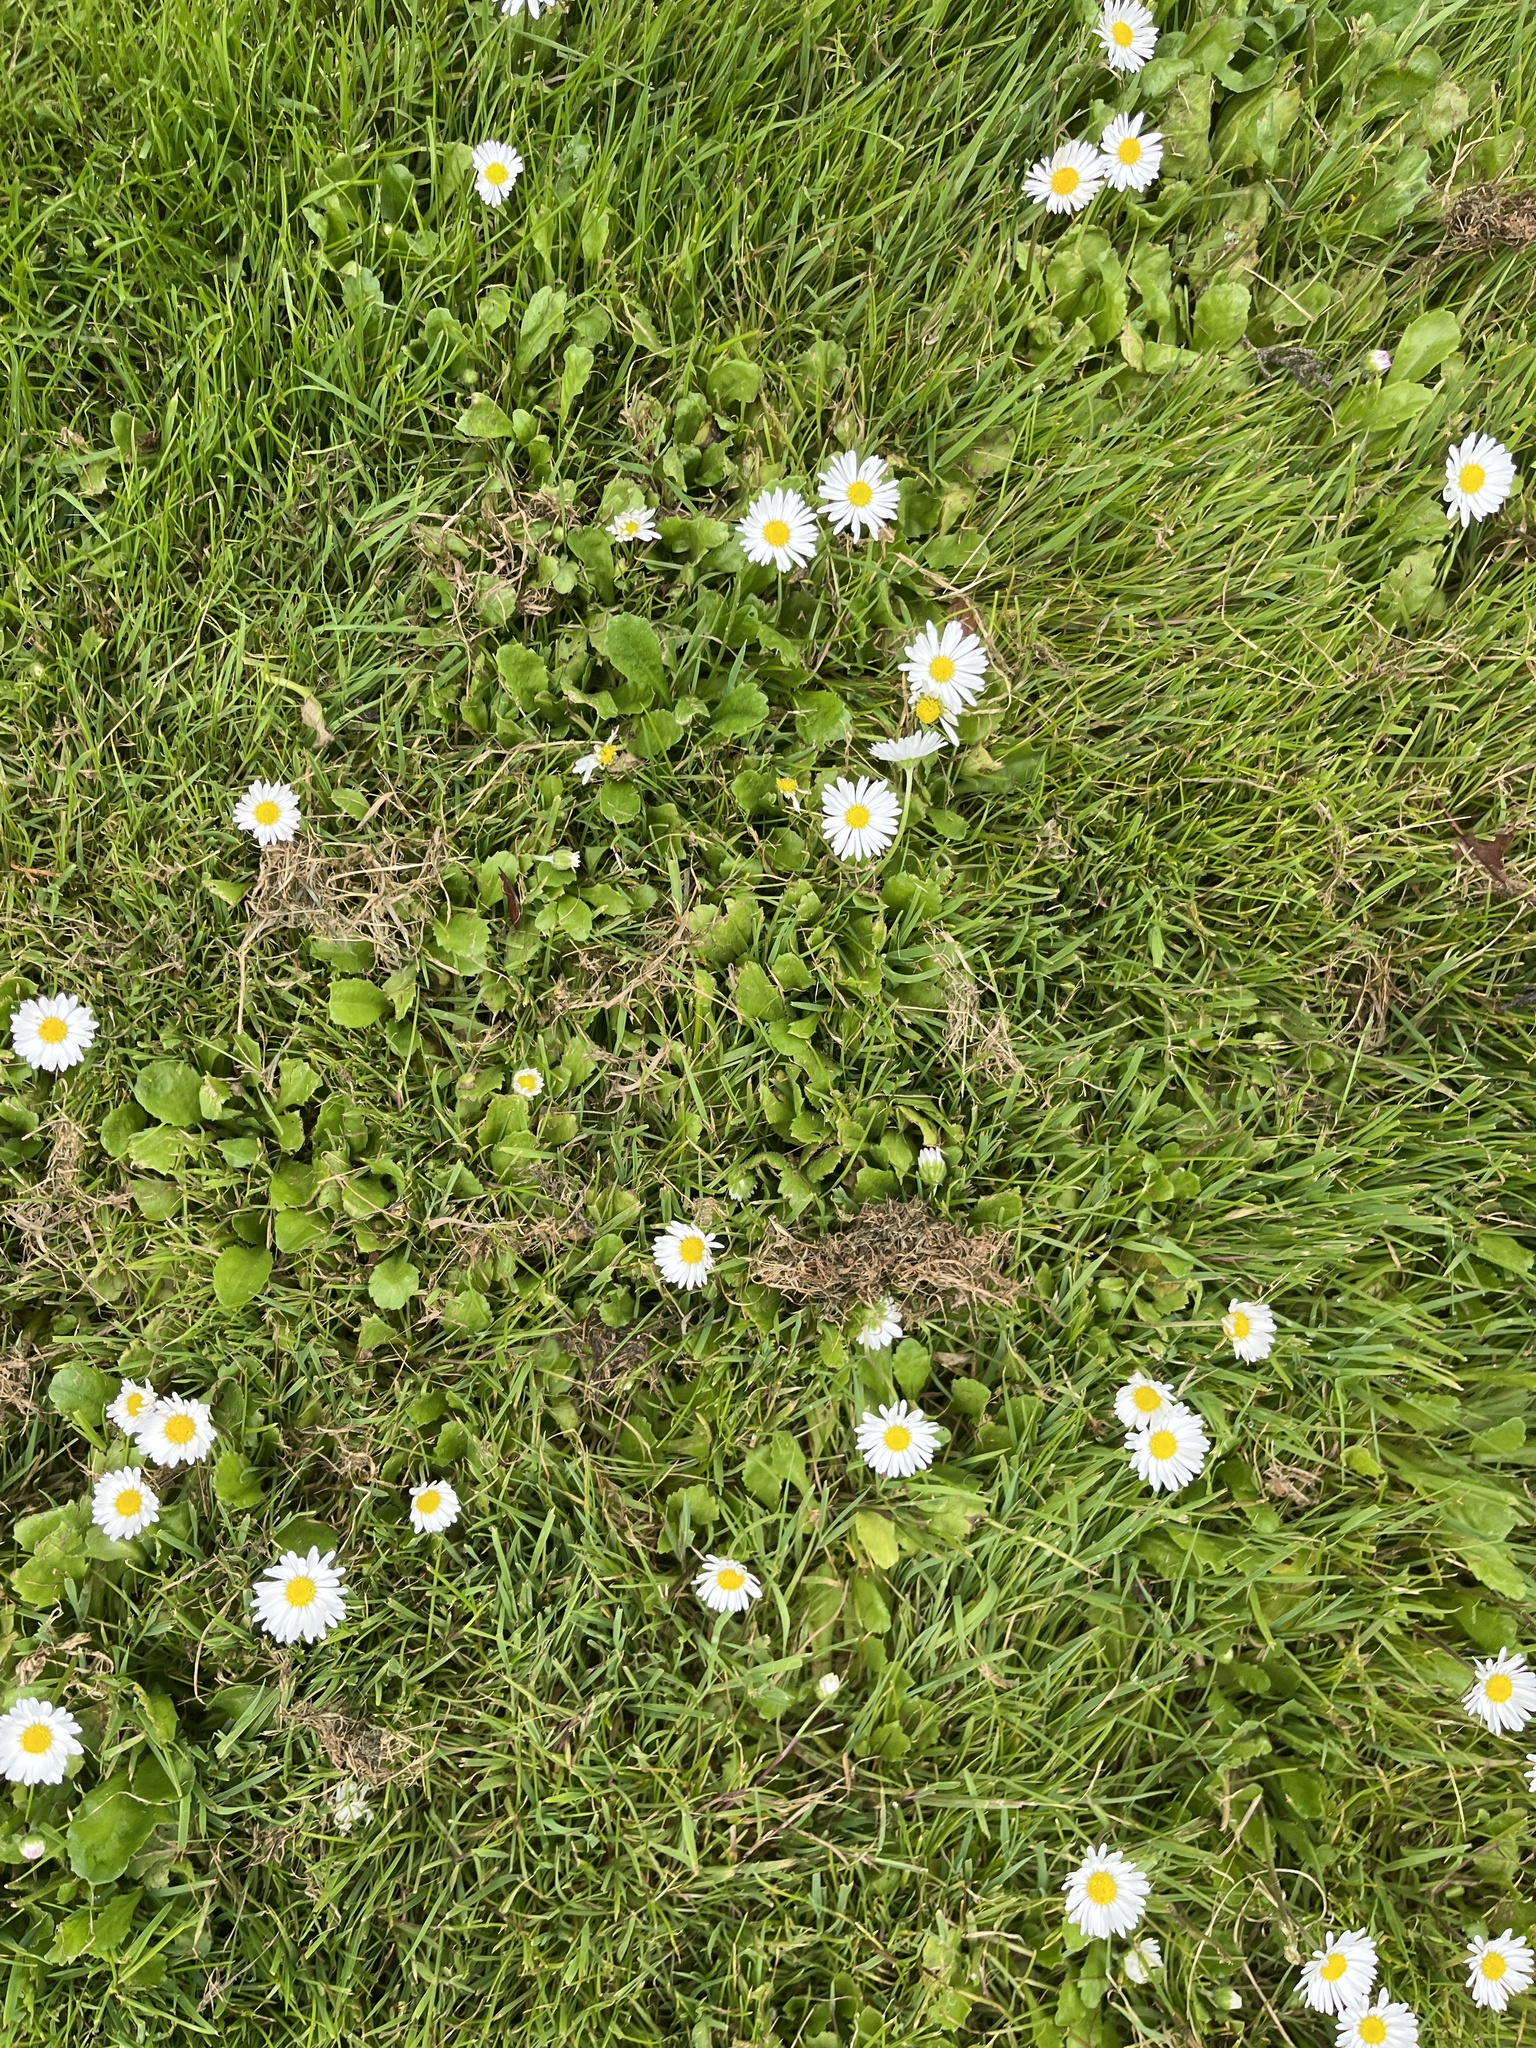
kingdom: Plantae
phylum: Tracheophyta
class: Magnoliopsida
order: Asterales
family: Asteraceae
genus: Bellis
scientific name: Bellis perennis
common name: Lawndaisy
